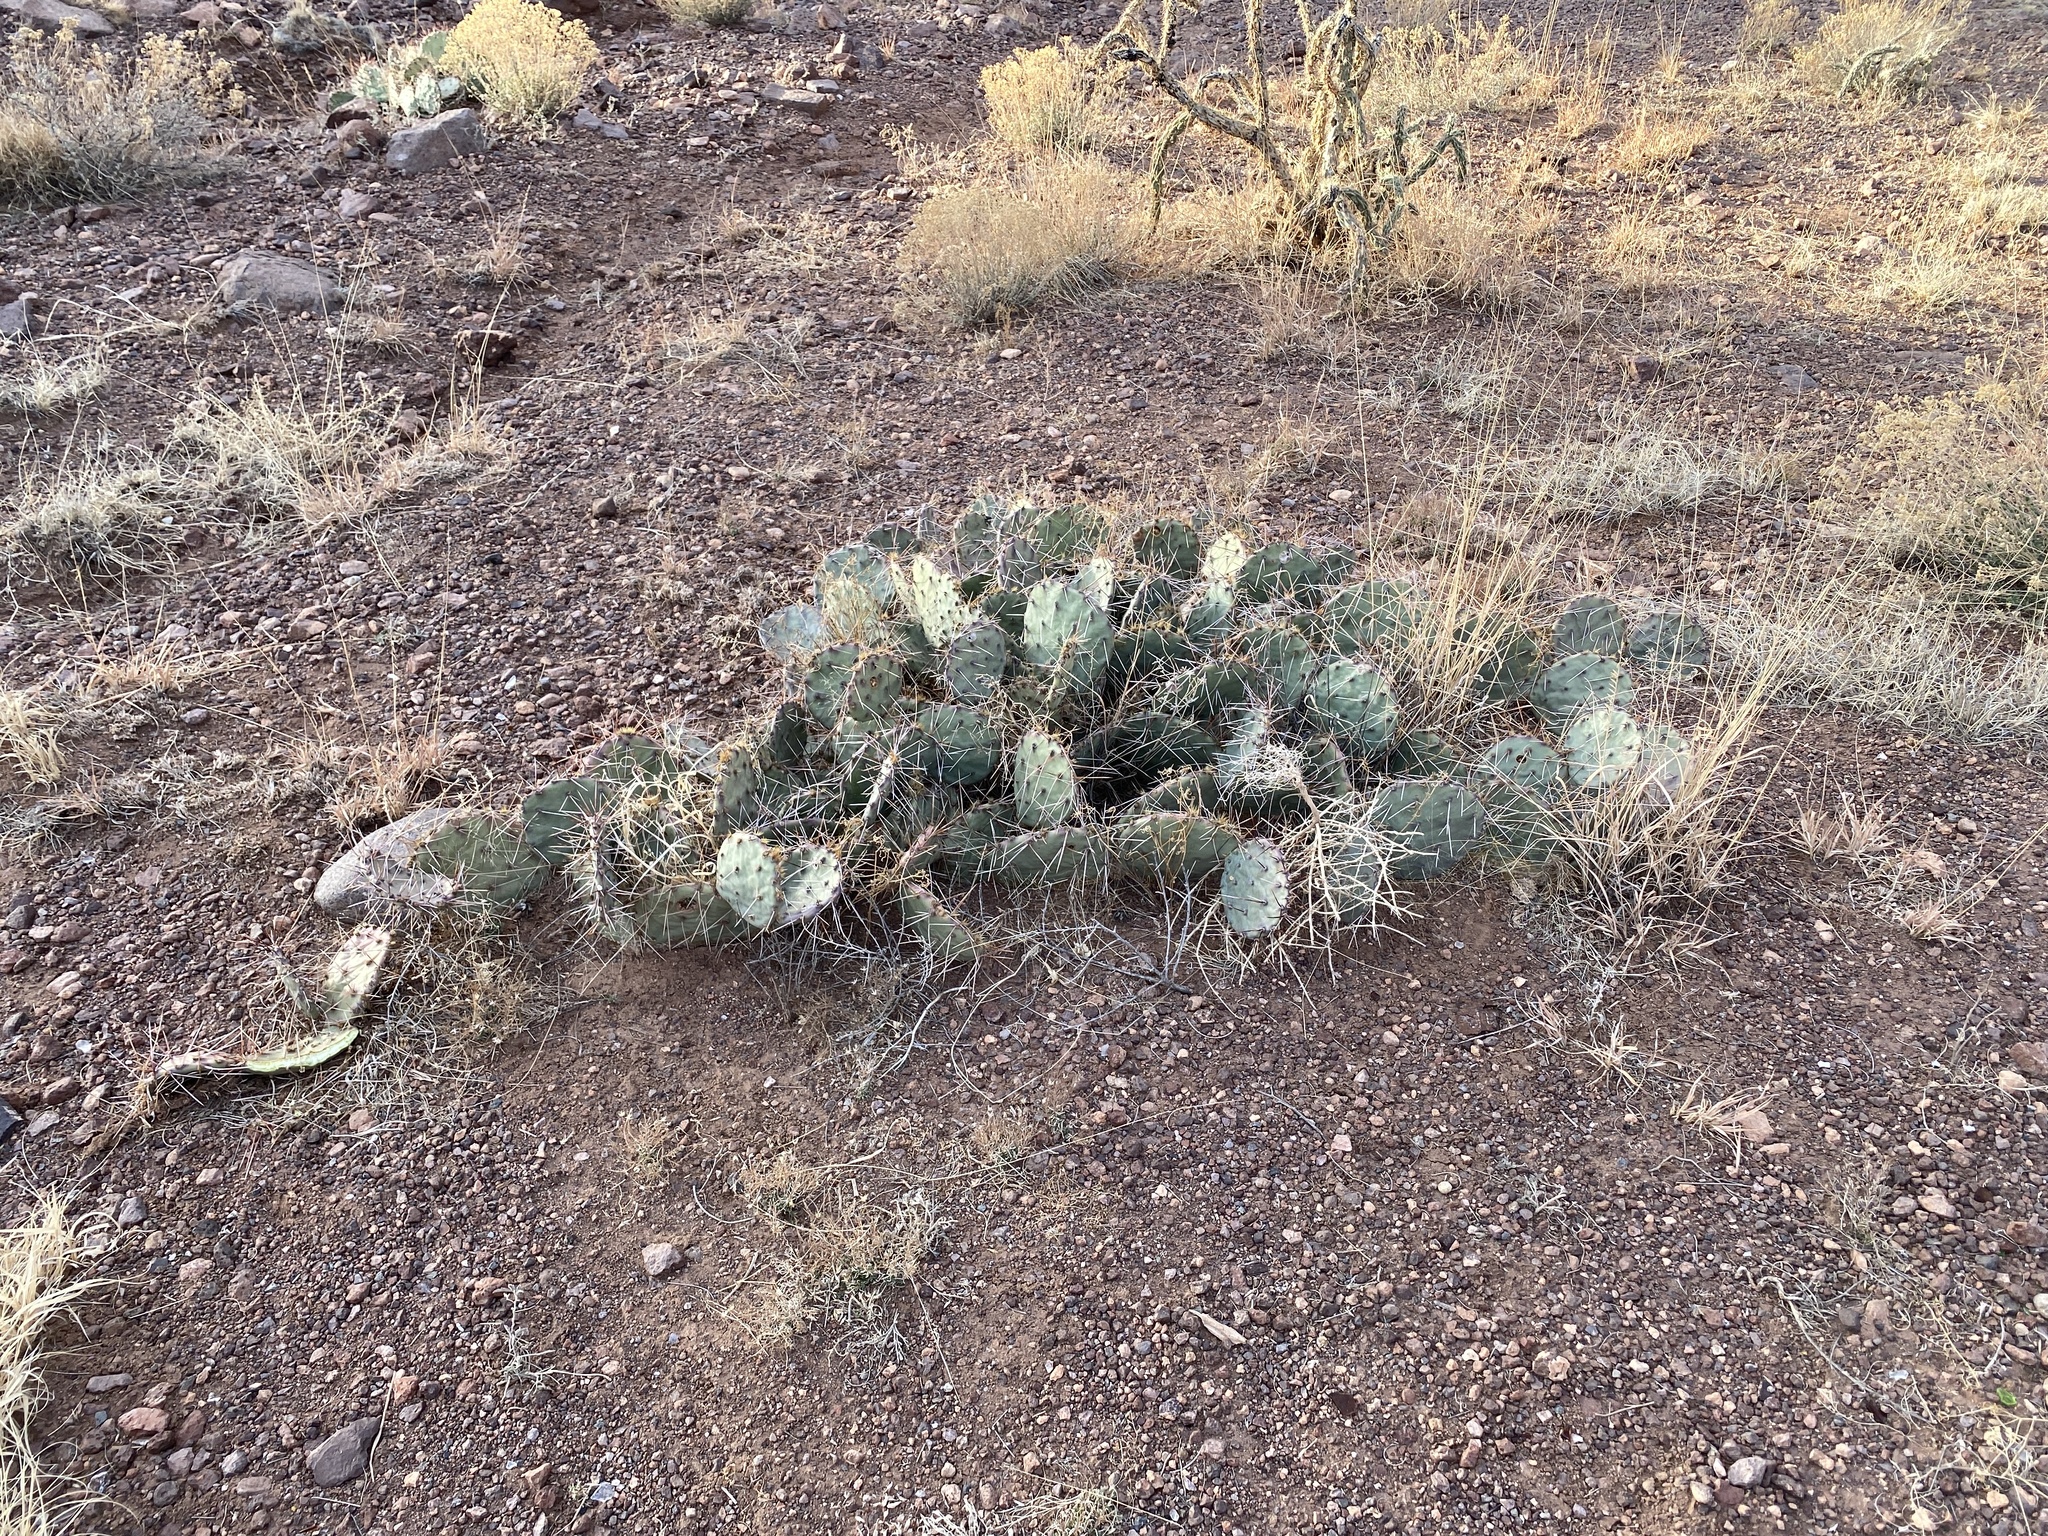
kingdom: Plantae
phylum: Tracheophyta
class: Magnoliopsida
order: Caryophyllales
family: Cactaceae
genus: Opuntia
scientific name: Opuntia phaeacantha
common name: New mexico prickly-pear
